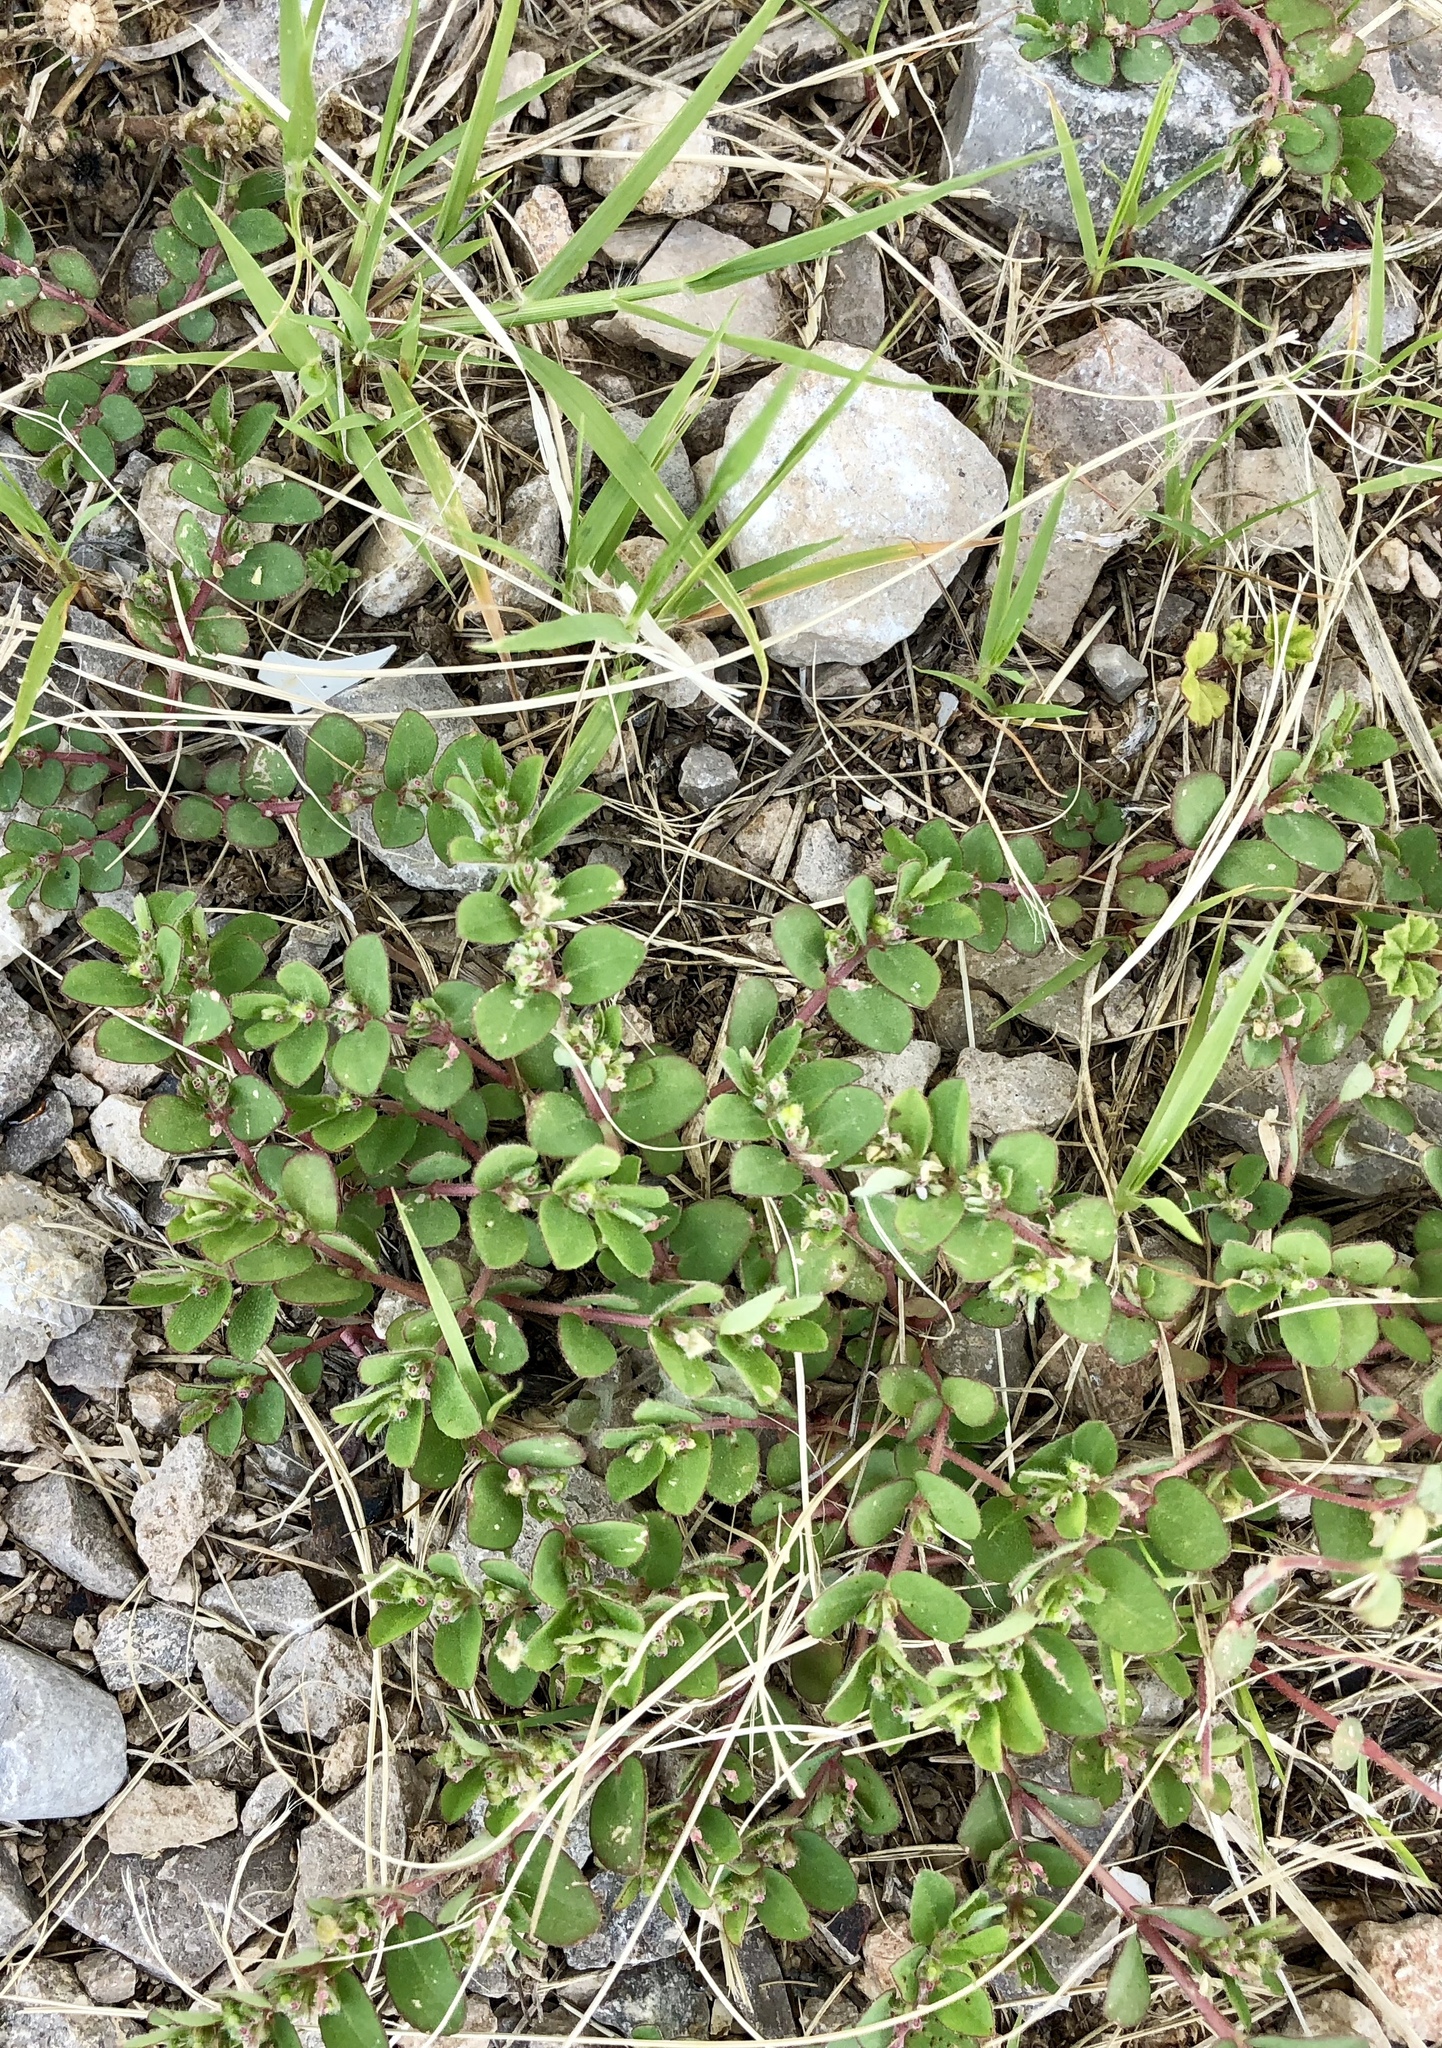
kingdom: Plantae
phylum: Tracheophyta
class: Magnoliopsida
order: Malpighiales
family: Euphorbiaceae
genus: Euphorbia
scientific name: Euphorbia stictospora
